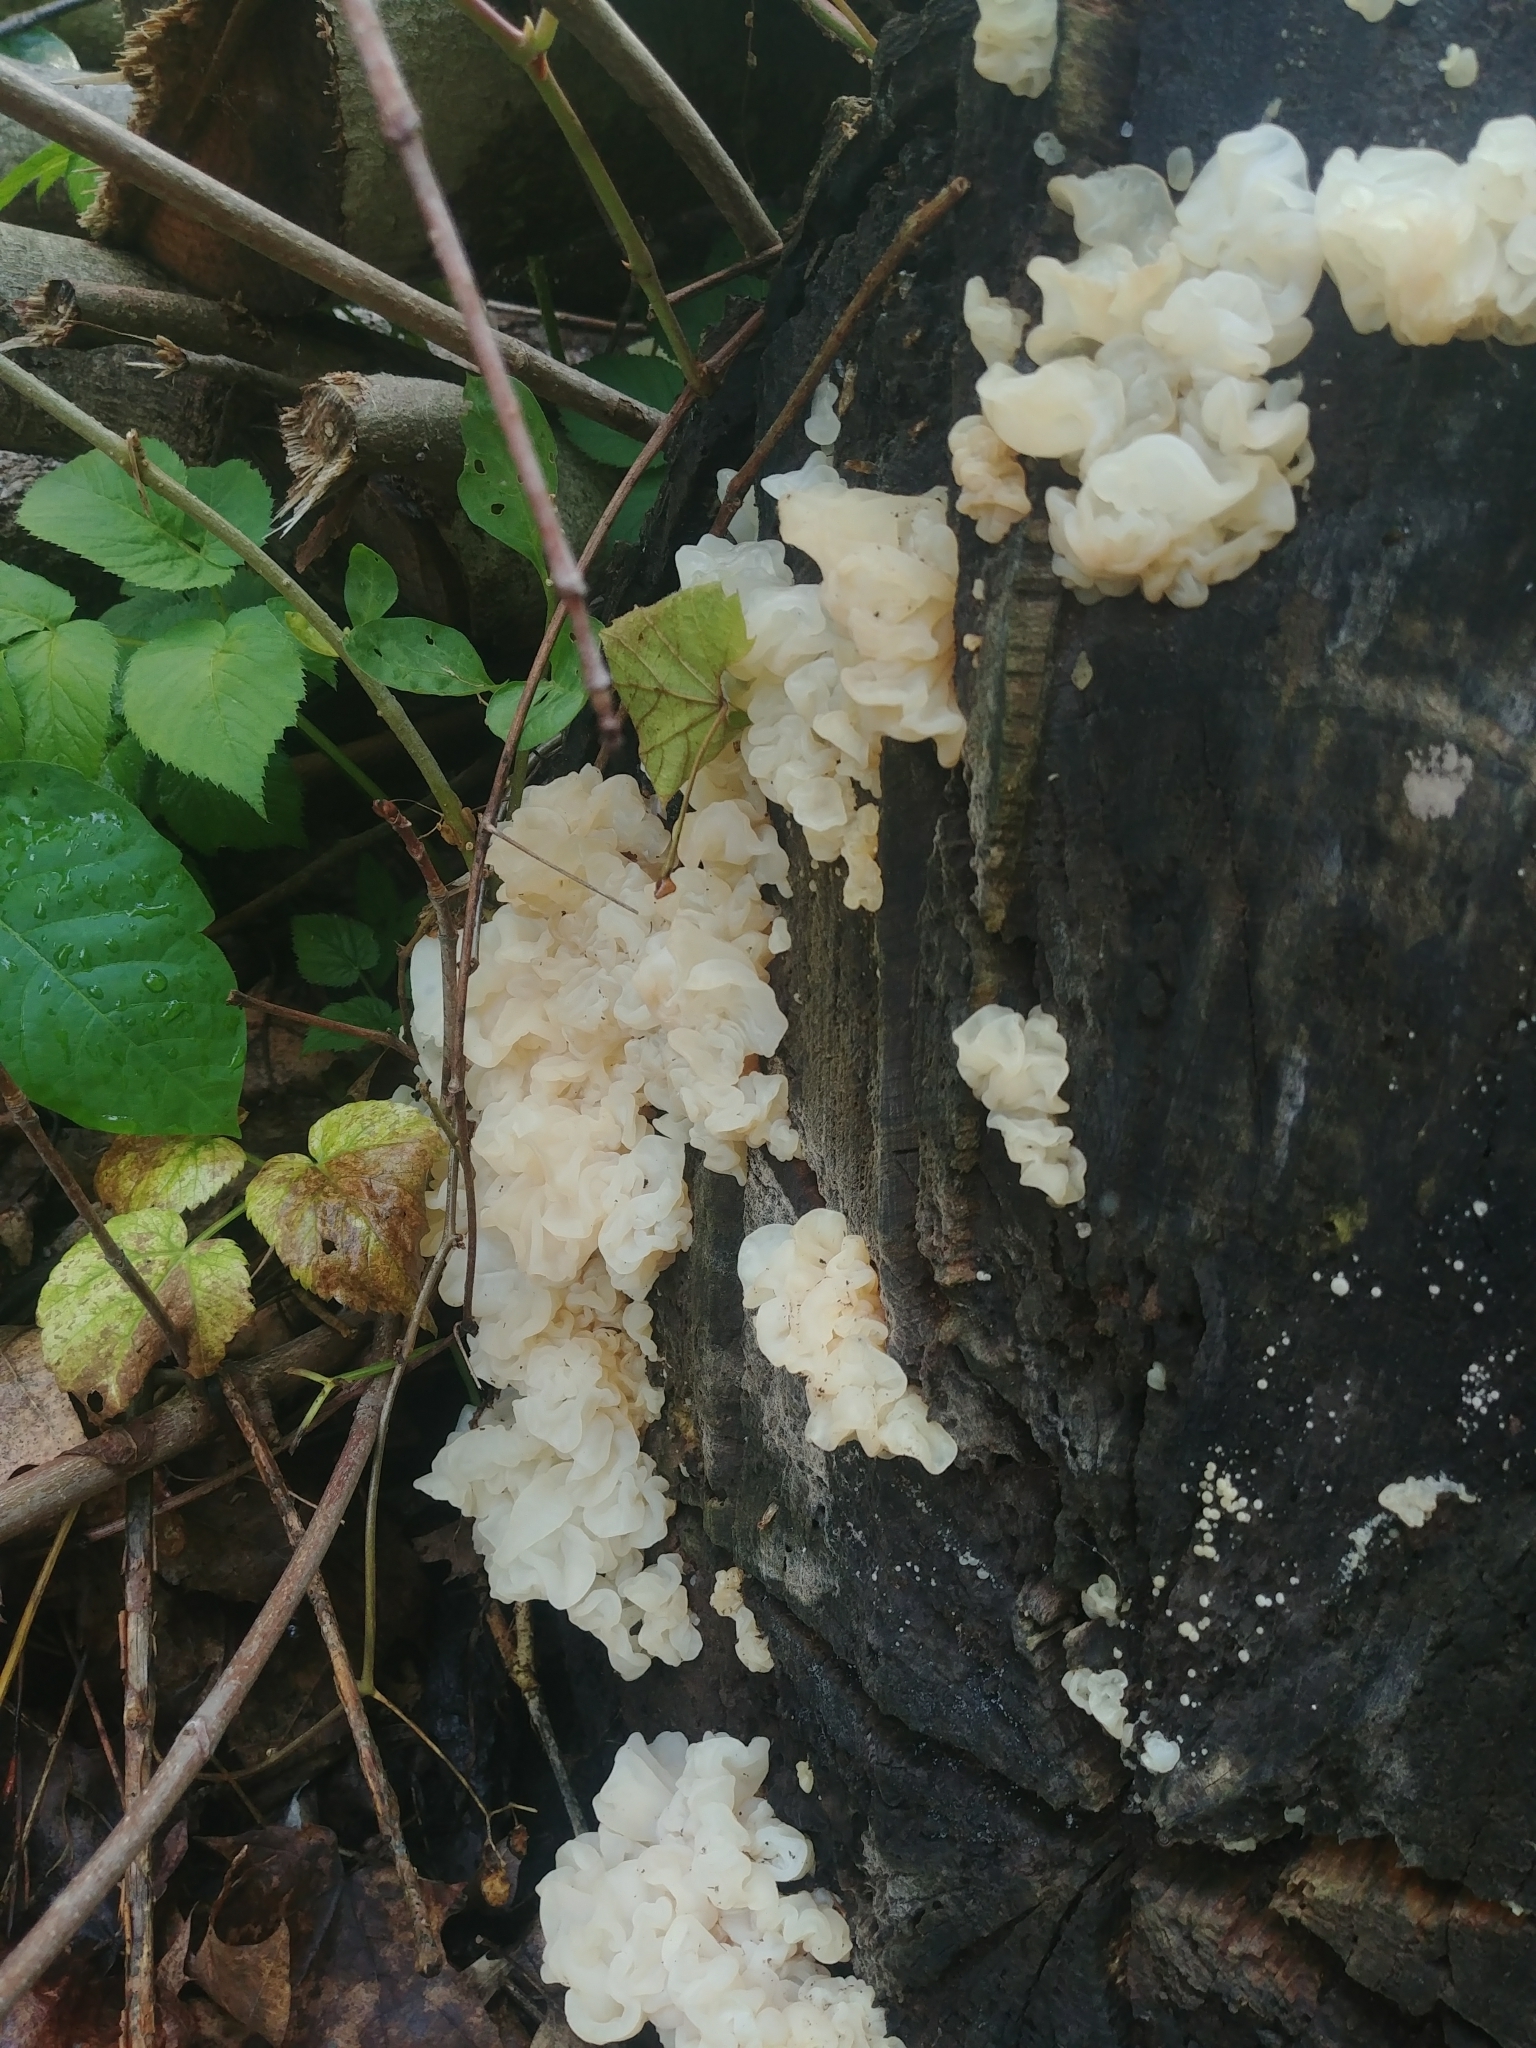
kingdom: Fungi
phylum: Basidiomycota
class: Agaricomycetes
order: Auriculariales
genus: Ductifera
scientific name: Ductifera pululahuana
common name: White jelly fungus
